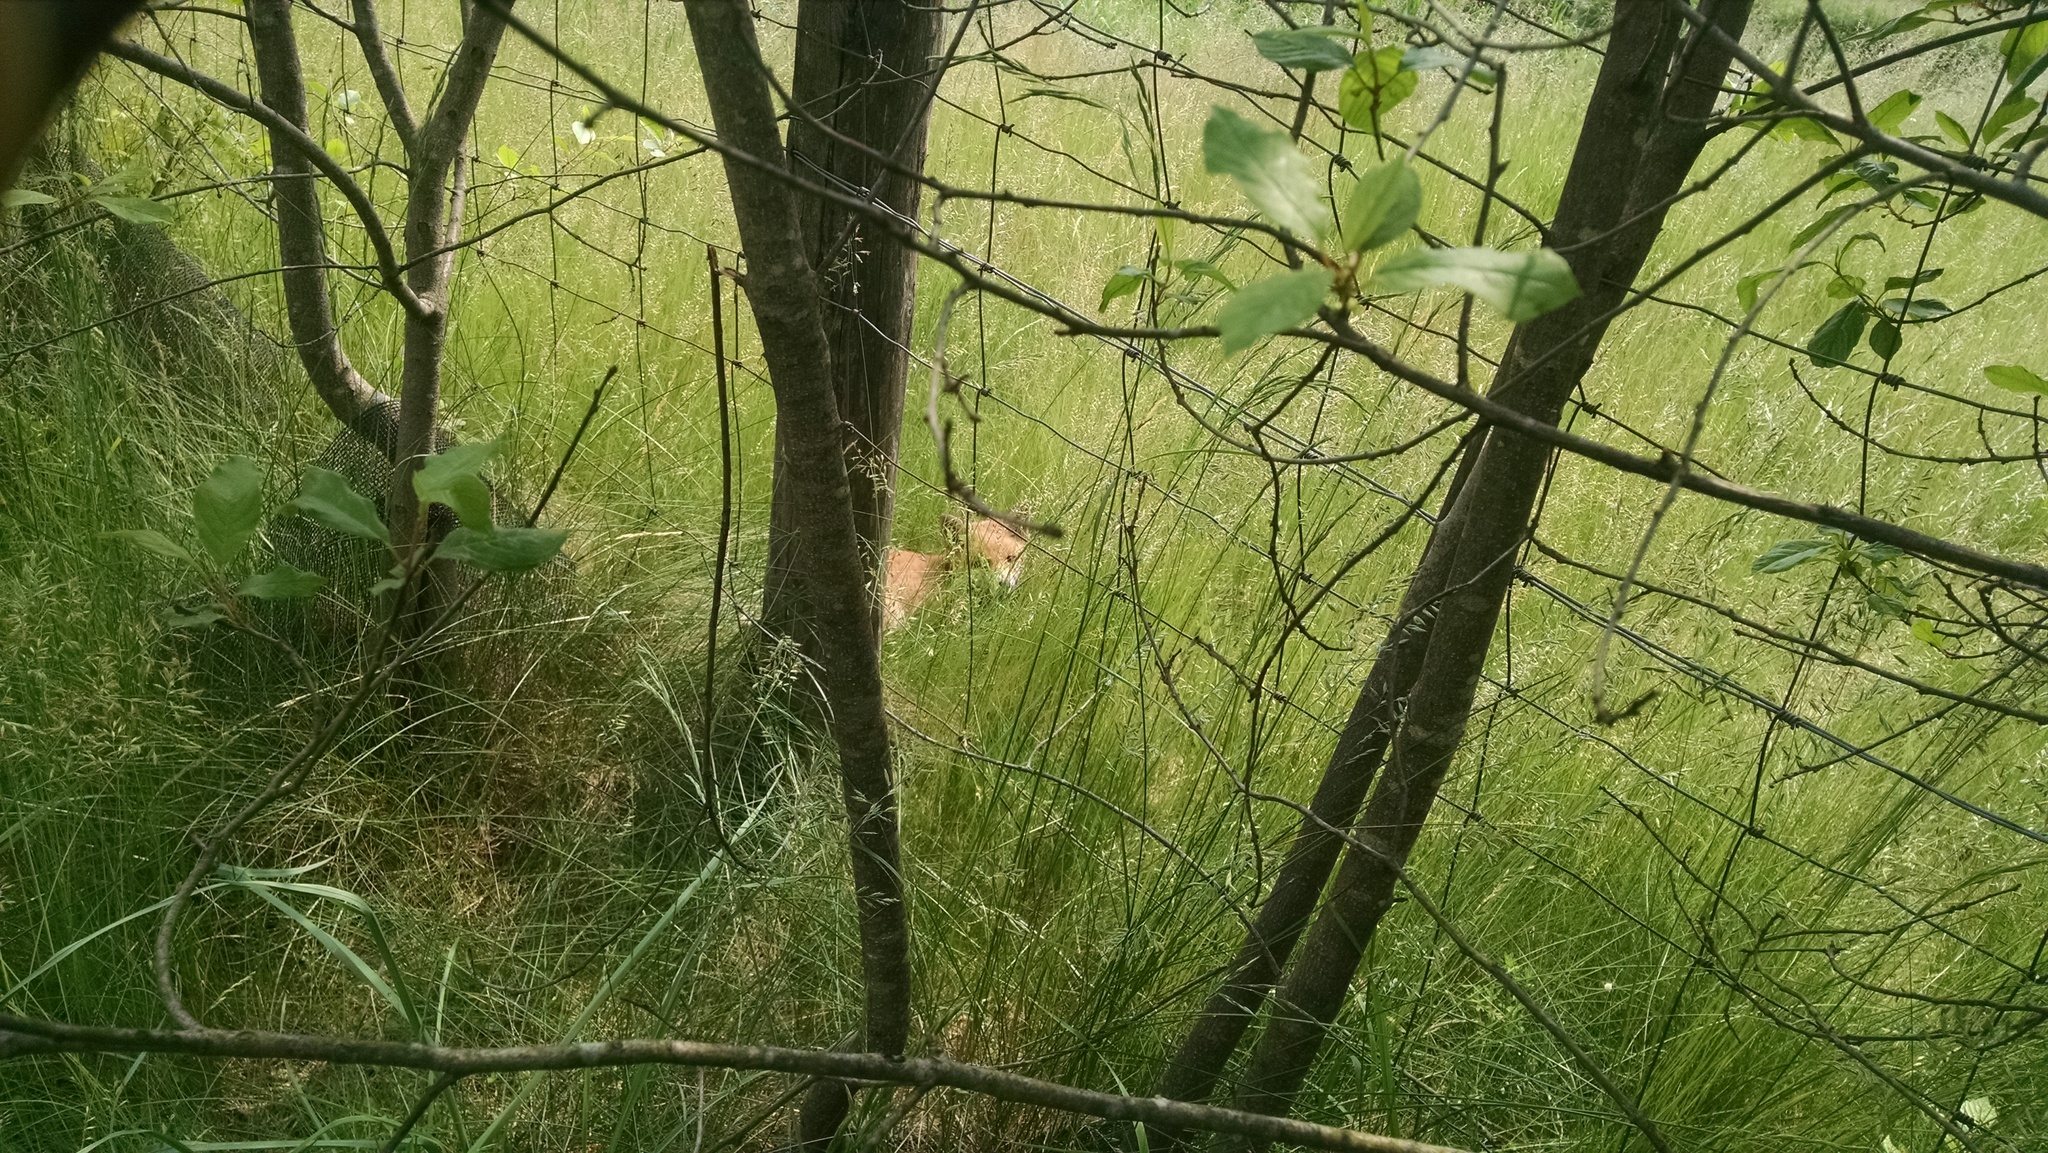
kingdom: Animalia
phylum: Chordata
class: Mammalia
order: Carnivora
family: Canidae
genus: Vulpes
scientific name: Vulpes vulpes
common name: Red fox
